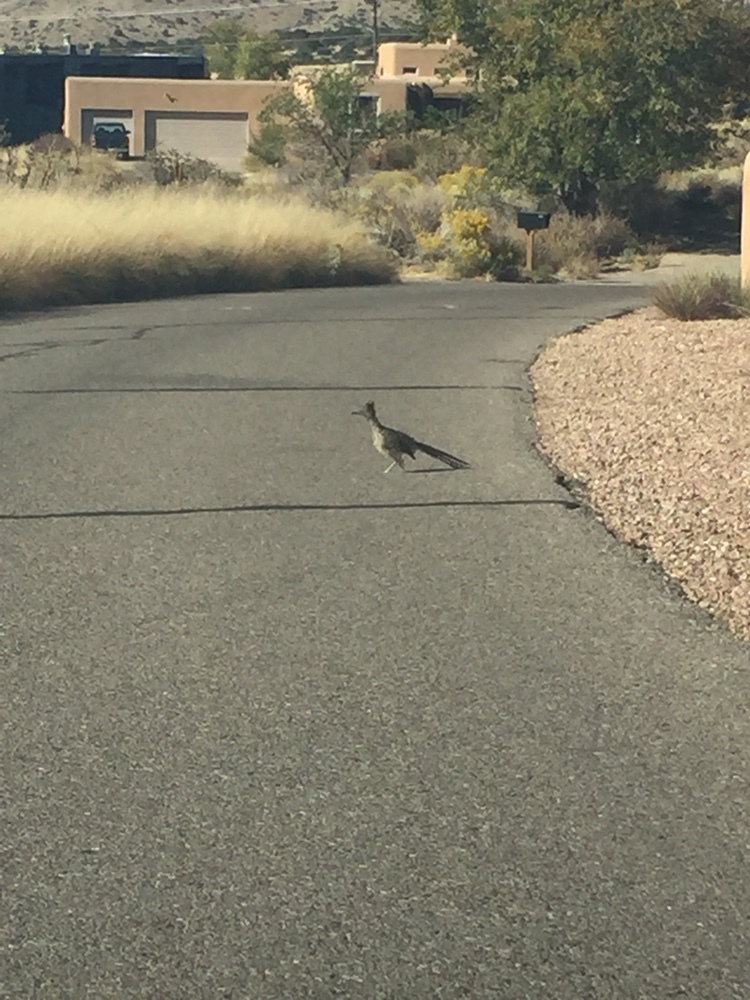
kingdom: Animalia
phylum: Chordata
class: Aves
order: Cuculiformes
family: Cuculidae
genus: Geococcyx
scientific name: Geococcyx californianus
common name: Greater roadrunner
